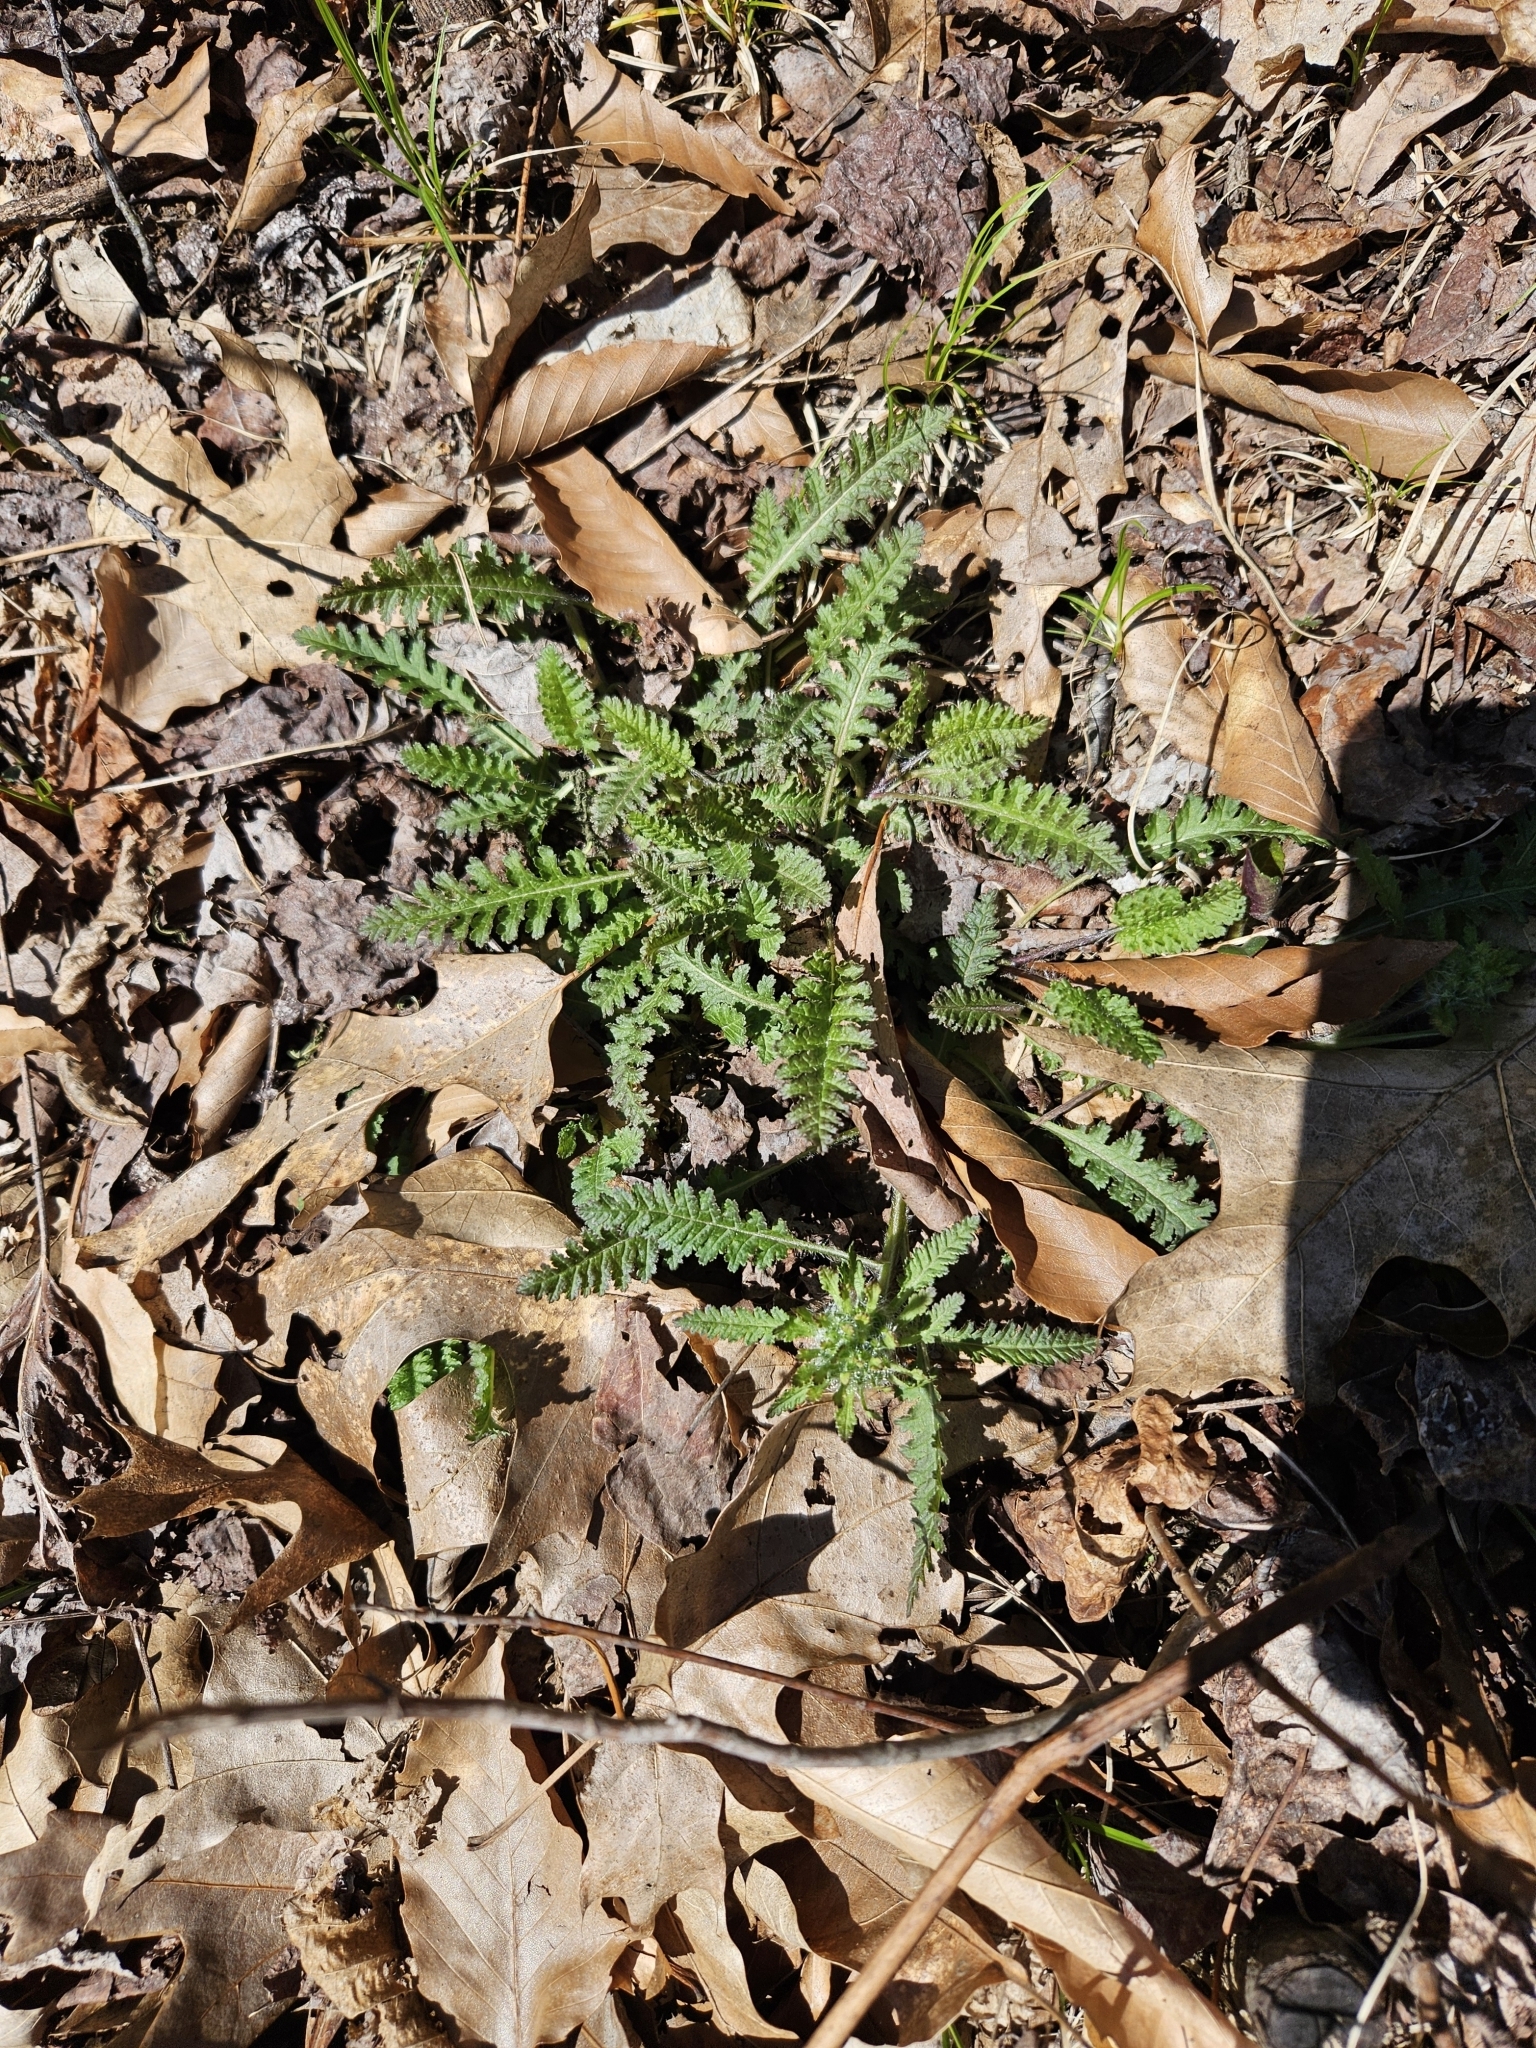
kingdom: Plantae
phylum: Tracheophyta
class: Magnoliopsida
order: Lamiales
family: Orobanchaceae
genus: Pedicularis
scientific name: Pedicularis canadensis
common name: Early lousewort
